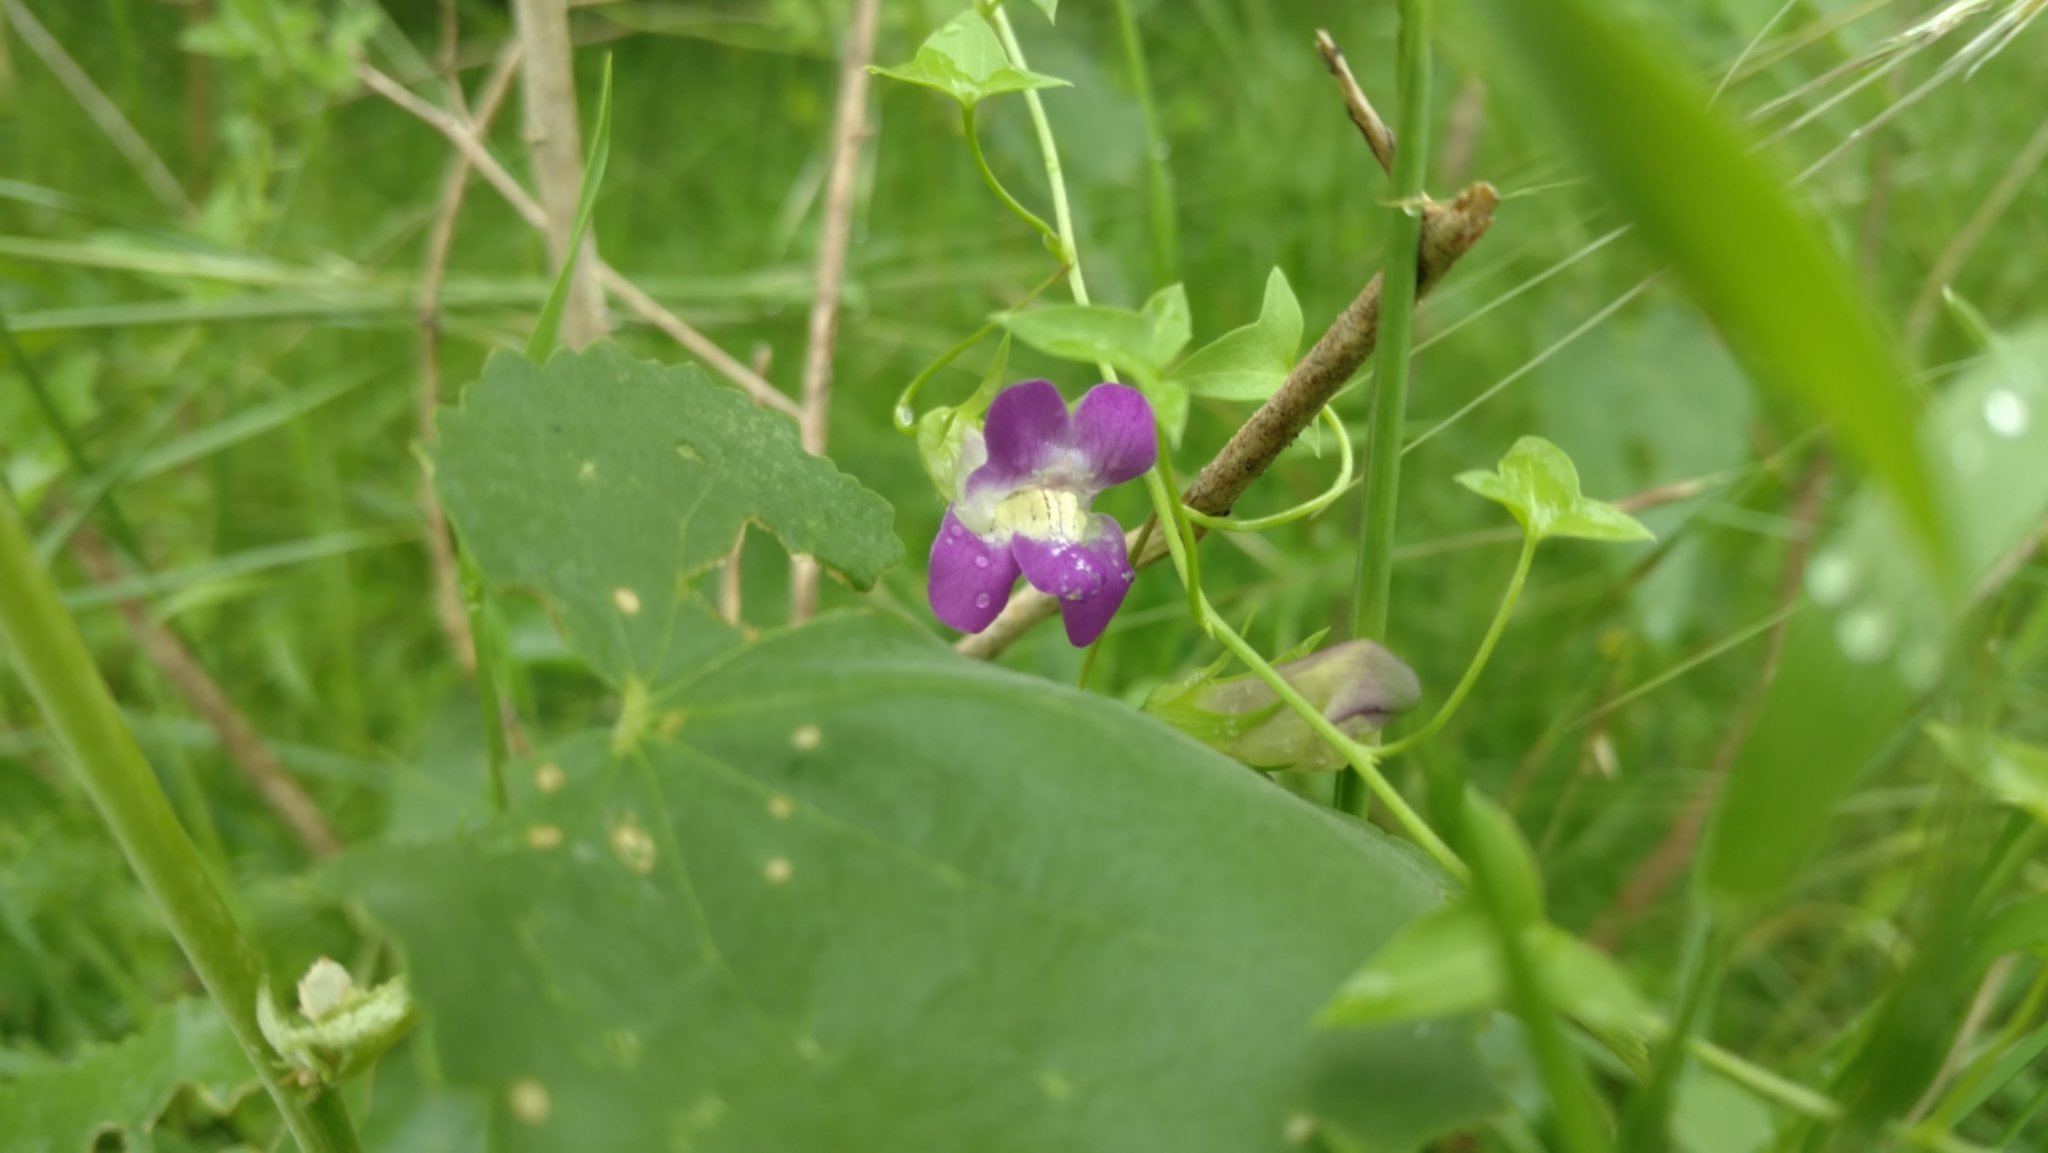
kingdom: Plantae
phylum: Tracheophyta
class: Magnoliopsida
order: Lamiales
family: Plantaginaceae
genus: Maurandella
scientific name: Maurandella antirrhiniflora
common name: Violet twining-snapdragon
